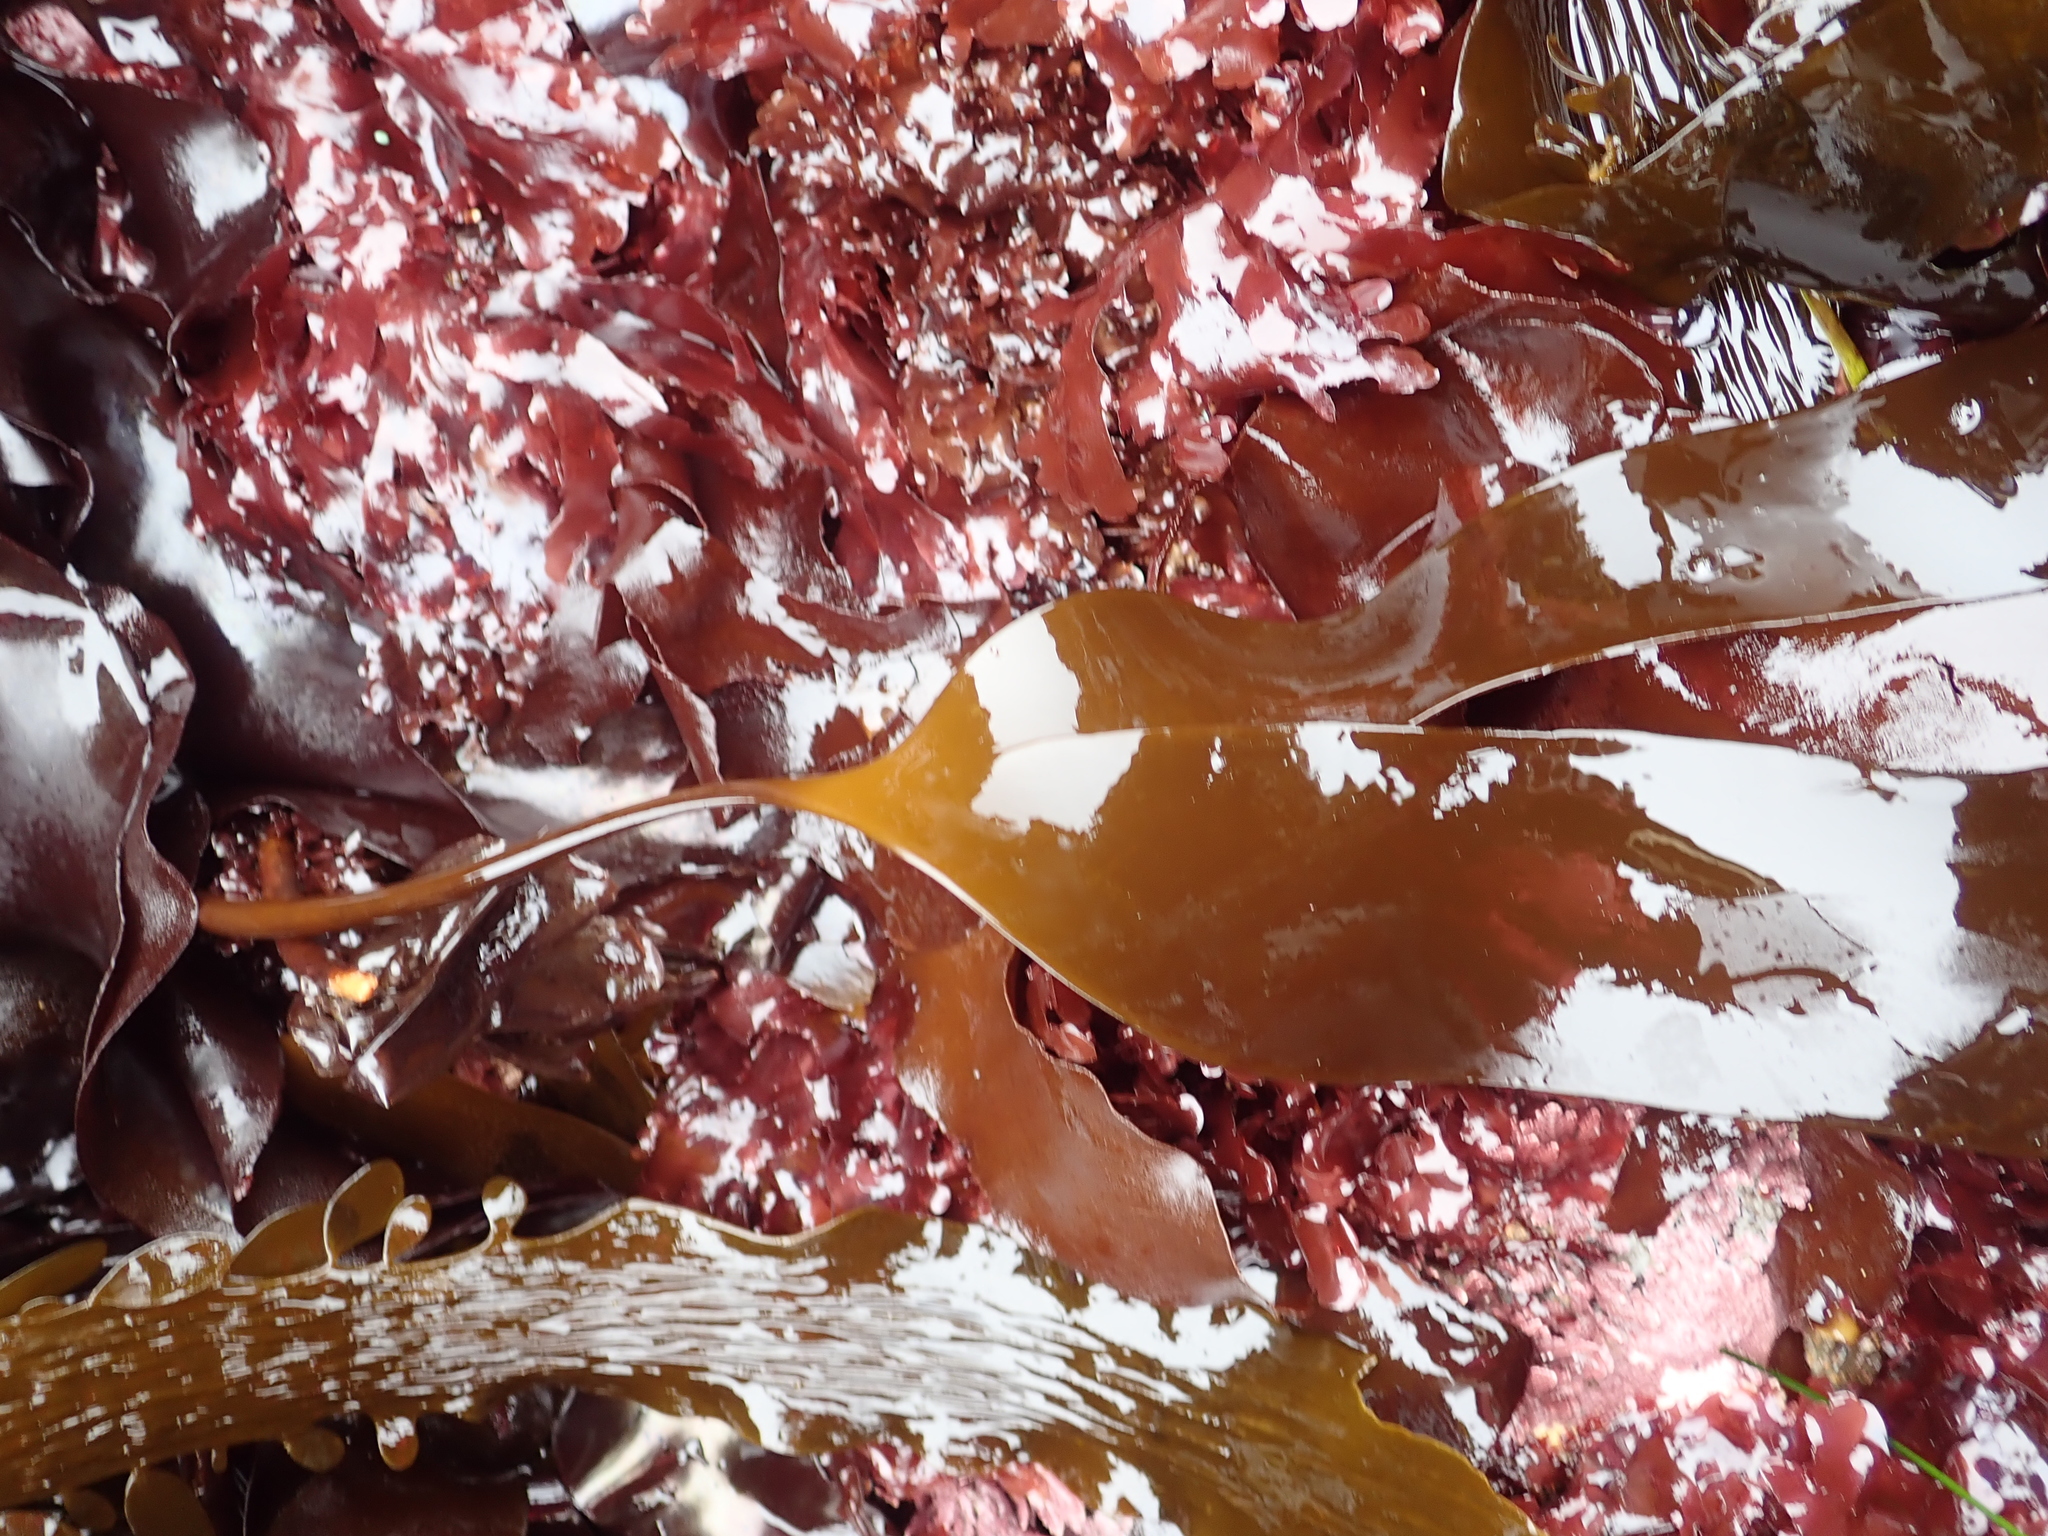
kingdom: Chromista
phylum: Ochrophyta
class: Phaeophyceae
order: Laminariales
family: Laminariaceae
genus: Laminaria
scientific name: Laminaria setchellii
